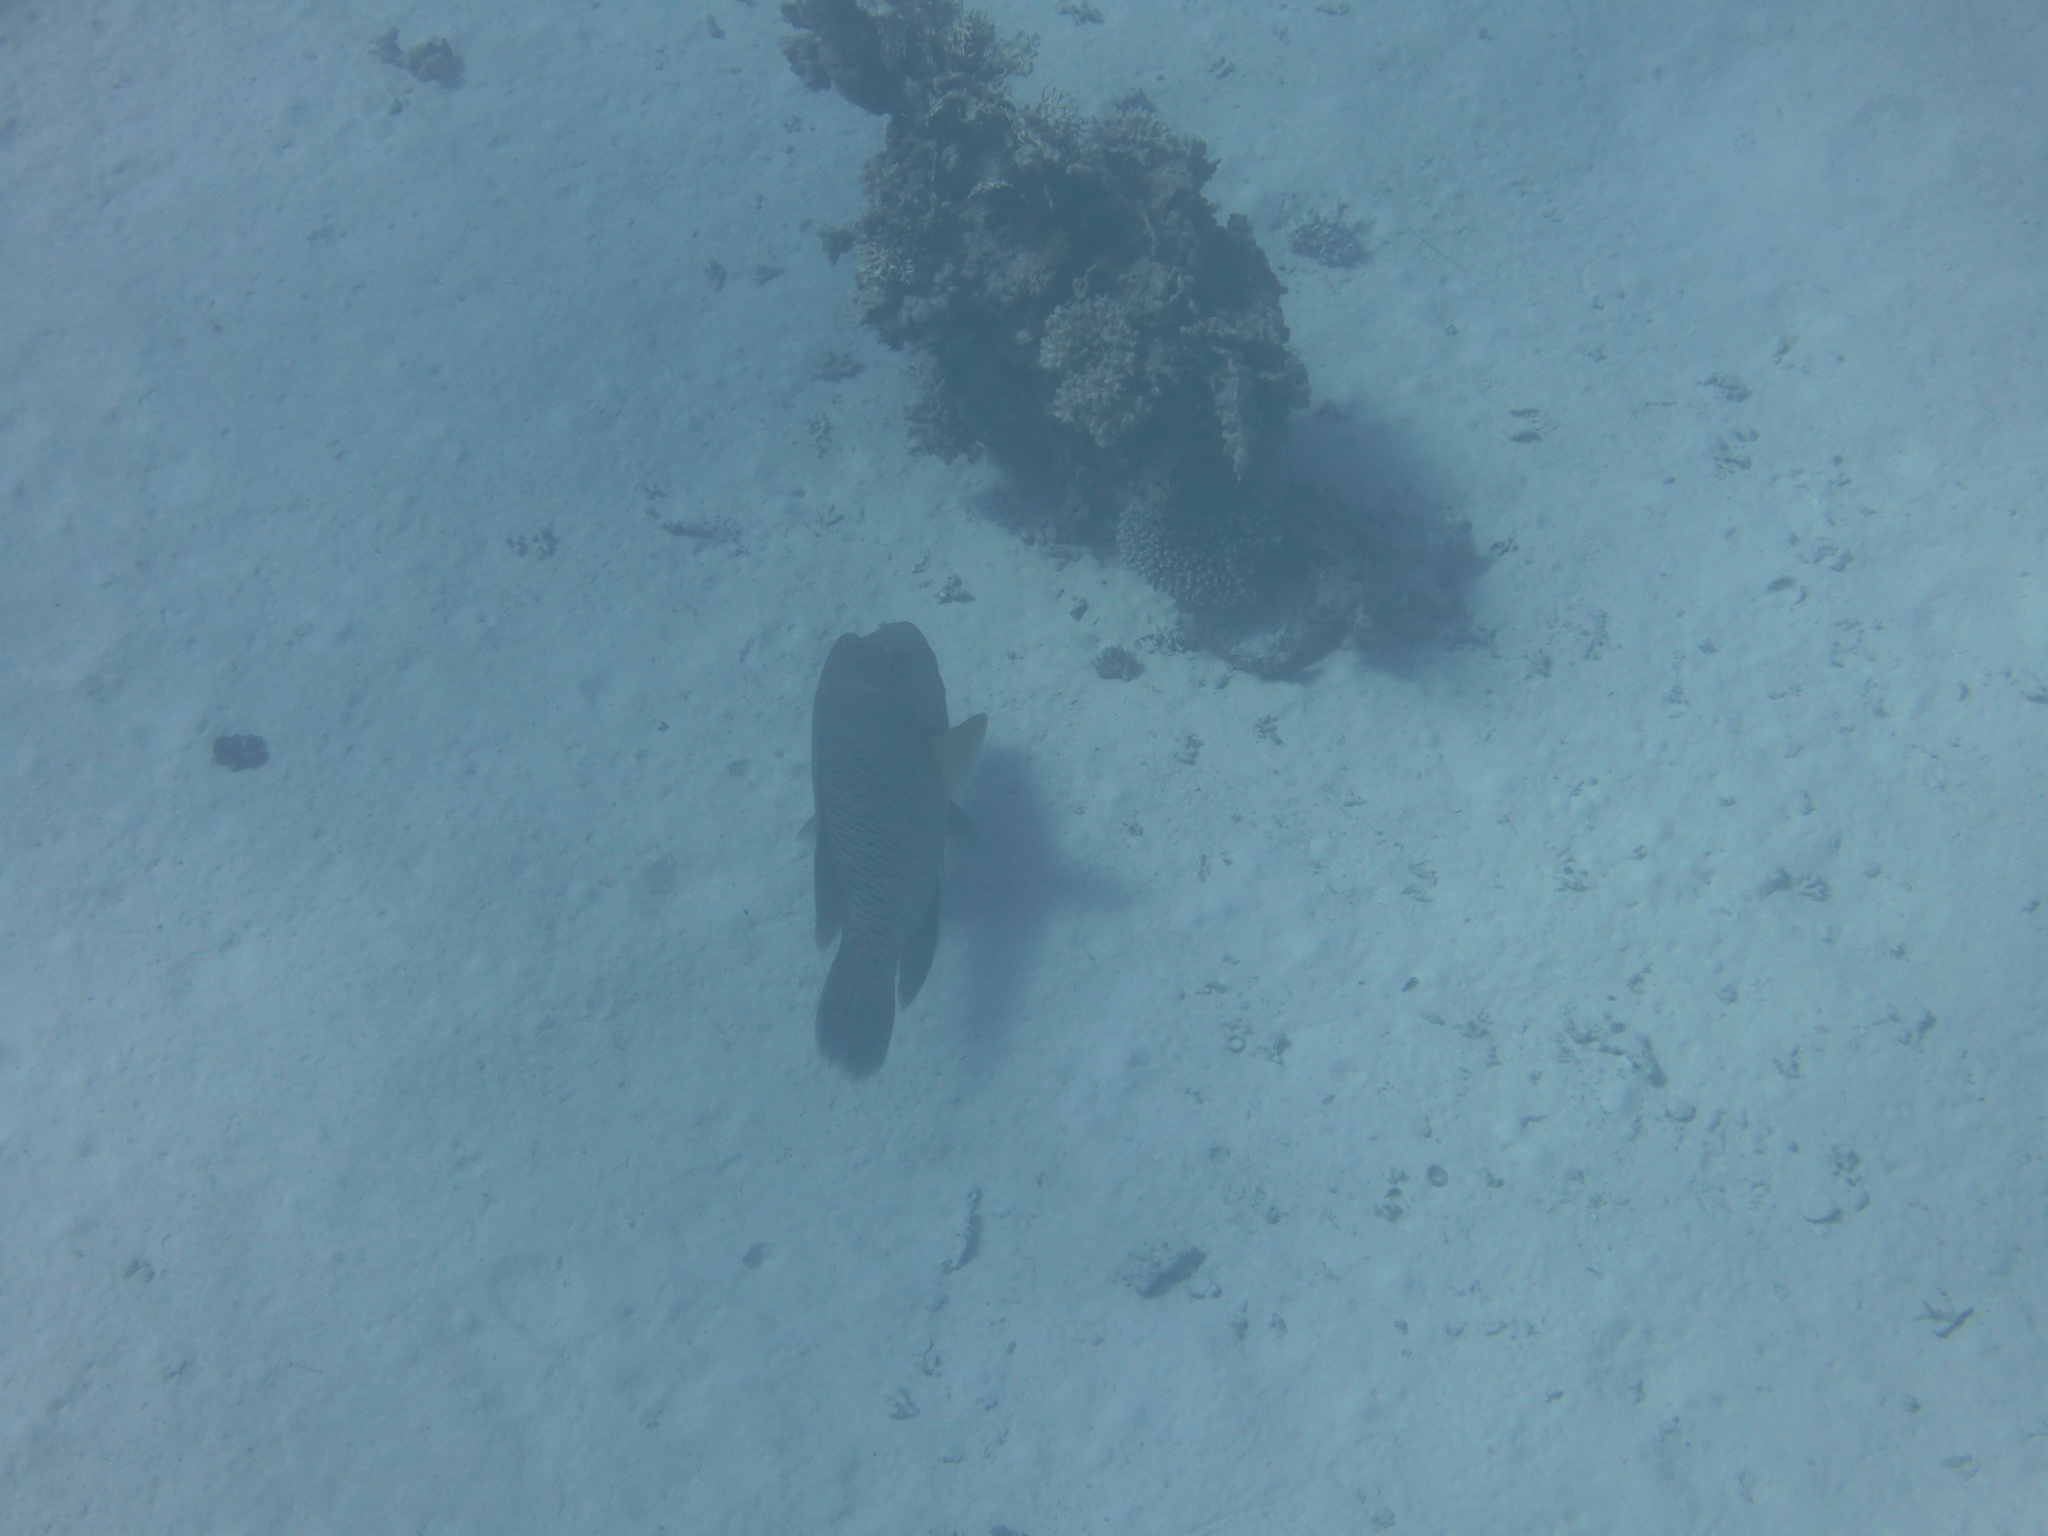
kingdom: Animalia
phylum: Chordata
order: Perciformes
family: Labridae
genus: Cheilinus
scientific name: Cheilinus undulatus
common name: Humphead wrasse
